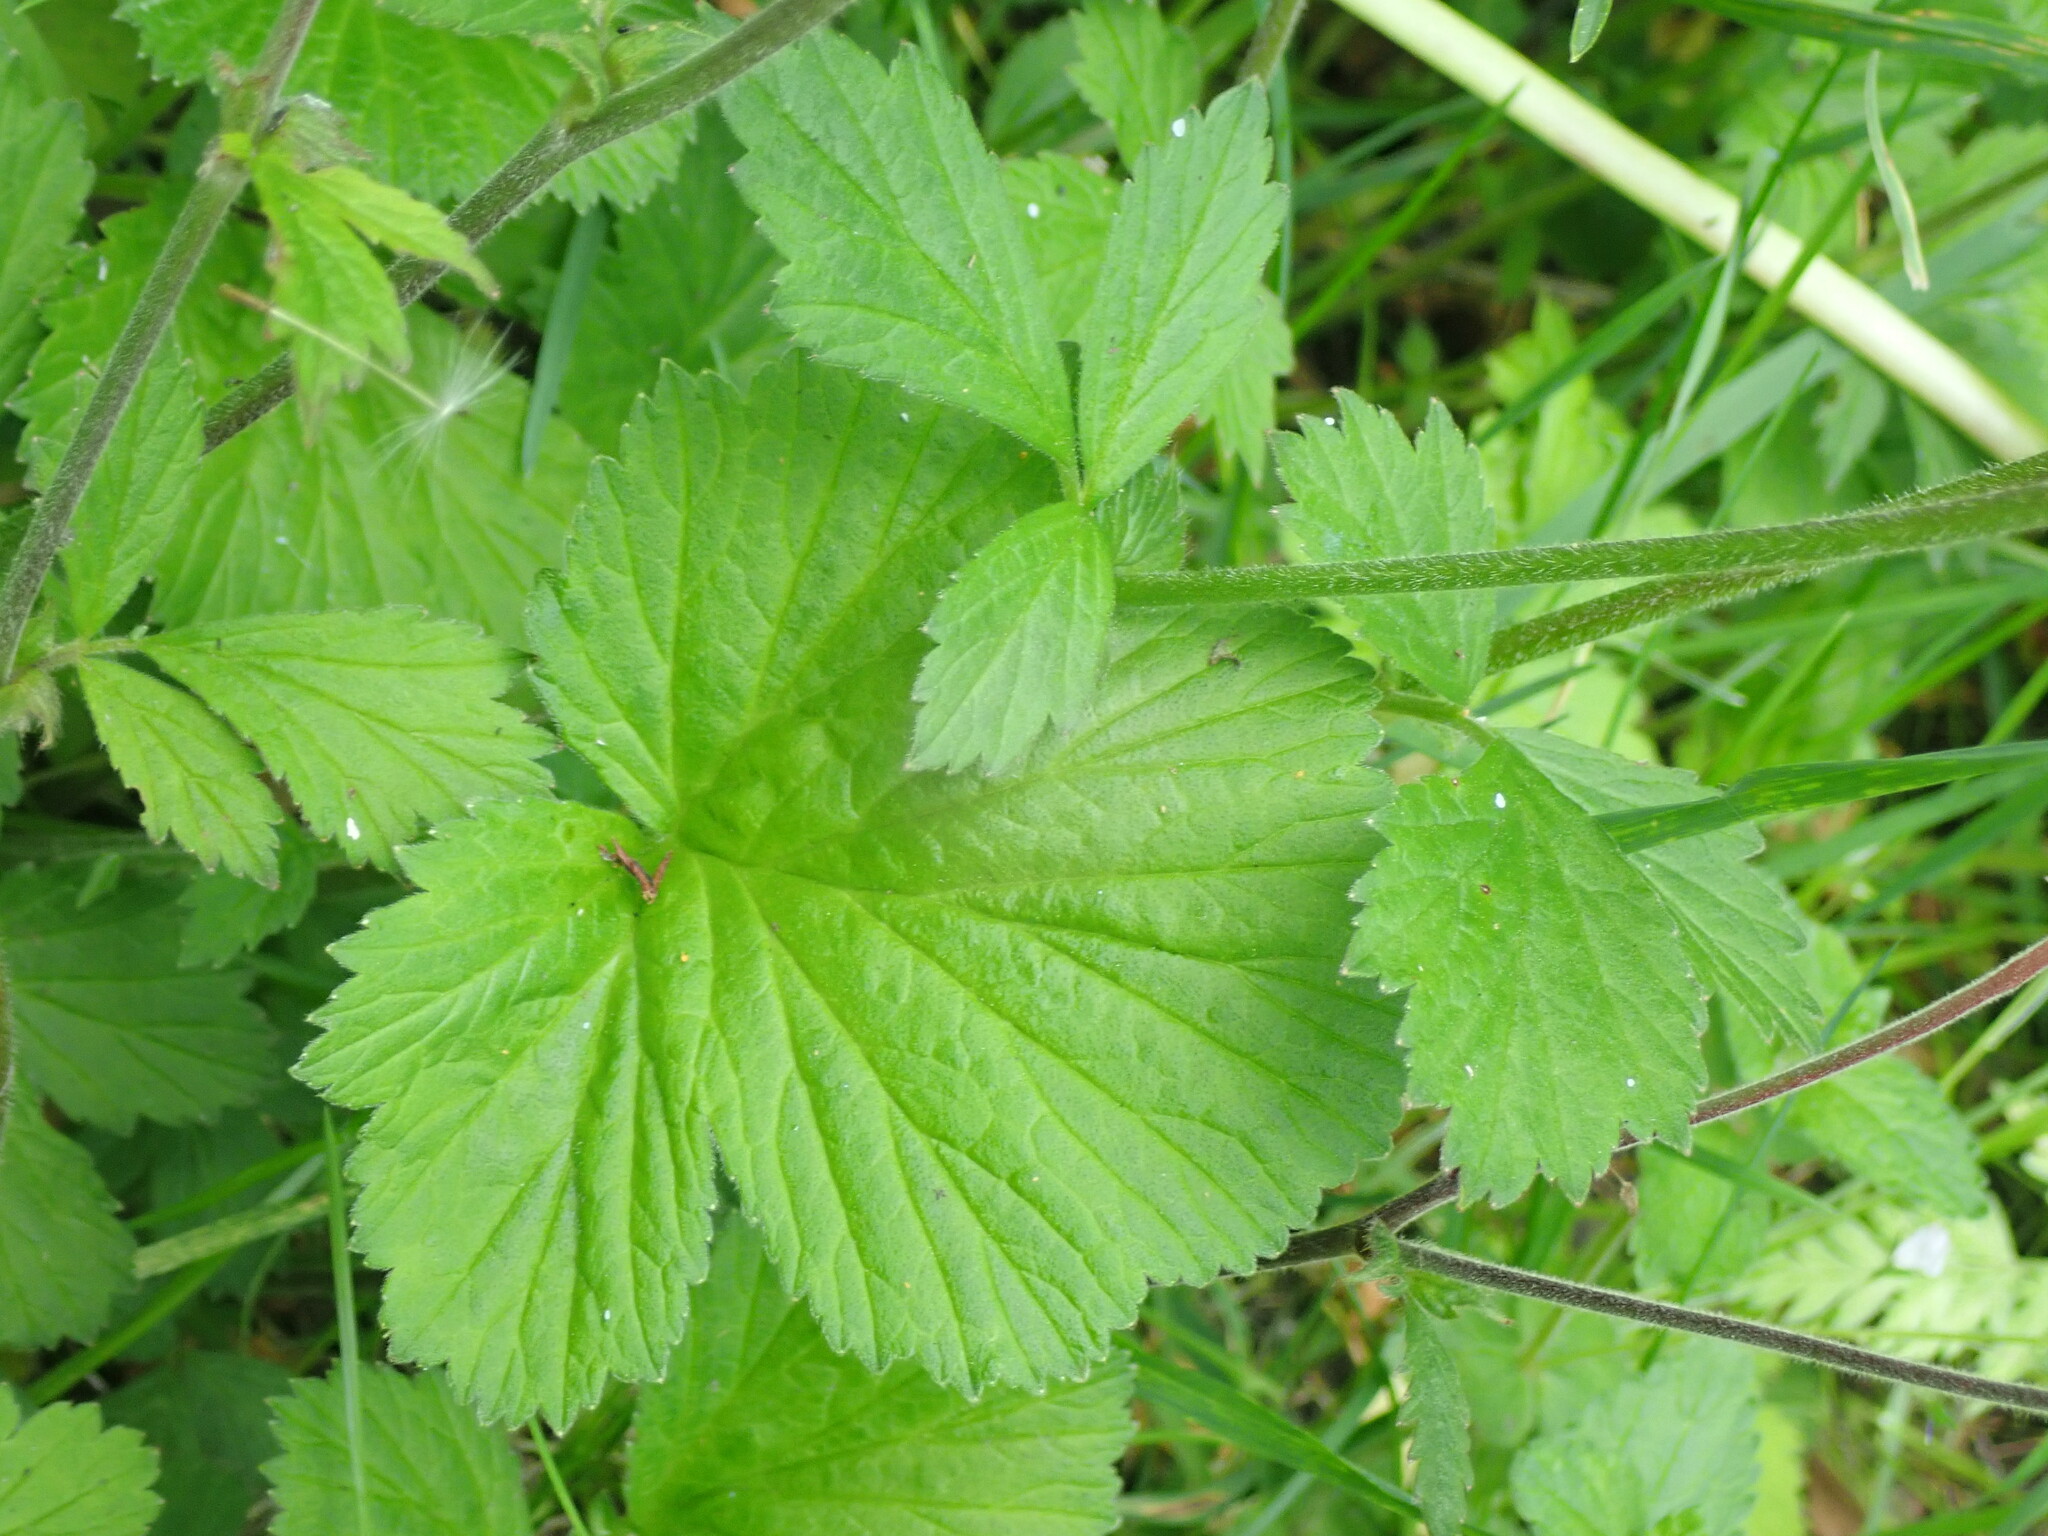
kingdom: Plantae
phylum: Tracheophyta
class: Magnoliopsida
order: Rosales
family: Rosaceae
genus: Geum
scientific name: Geum rivale
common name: Water avens
